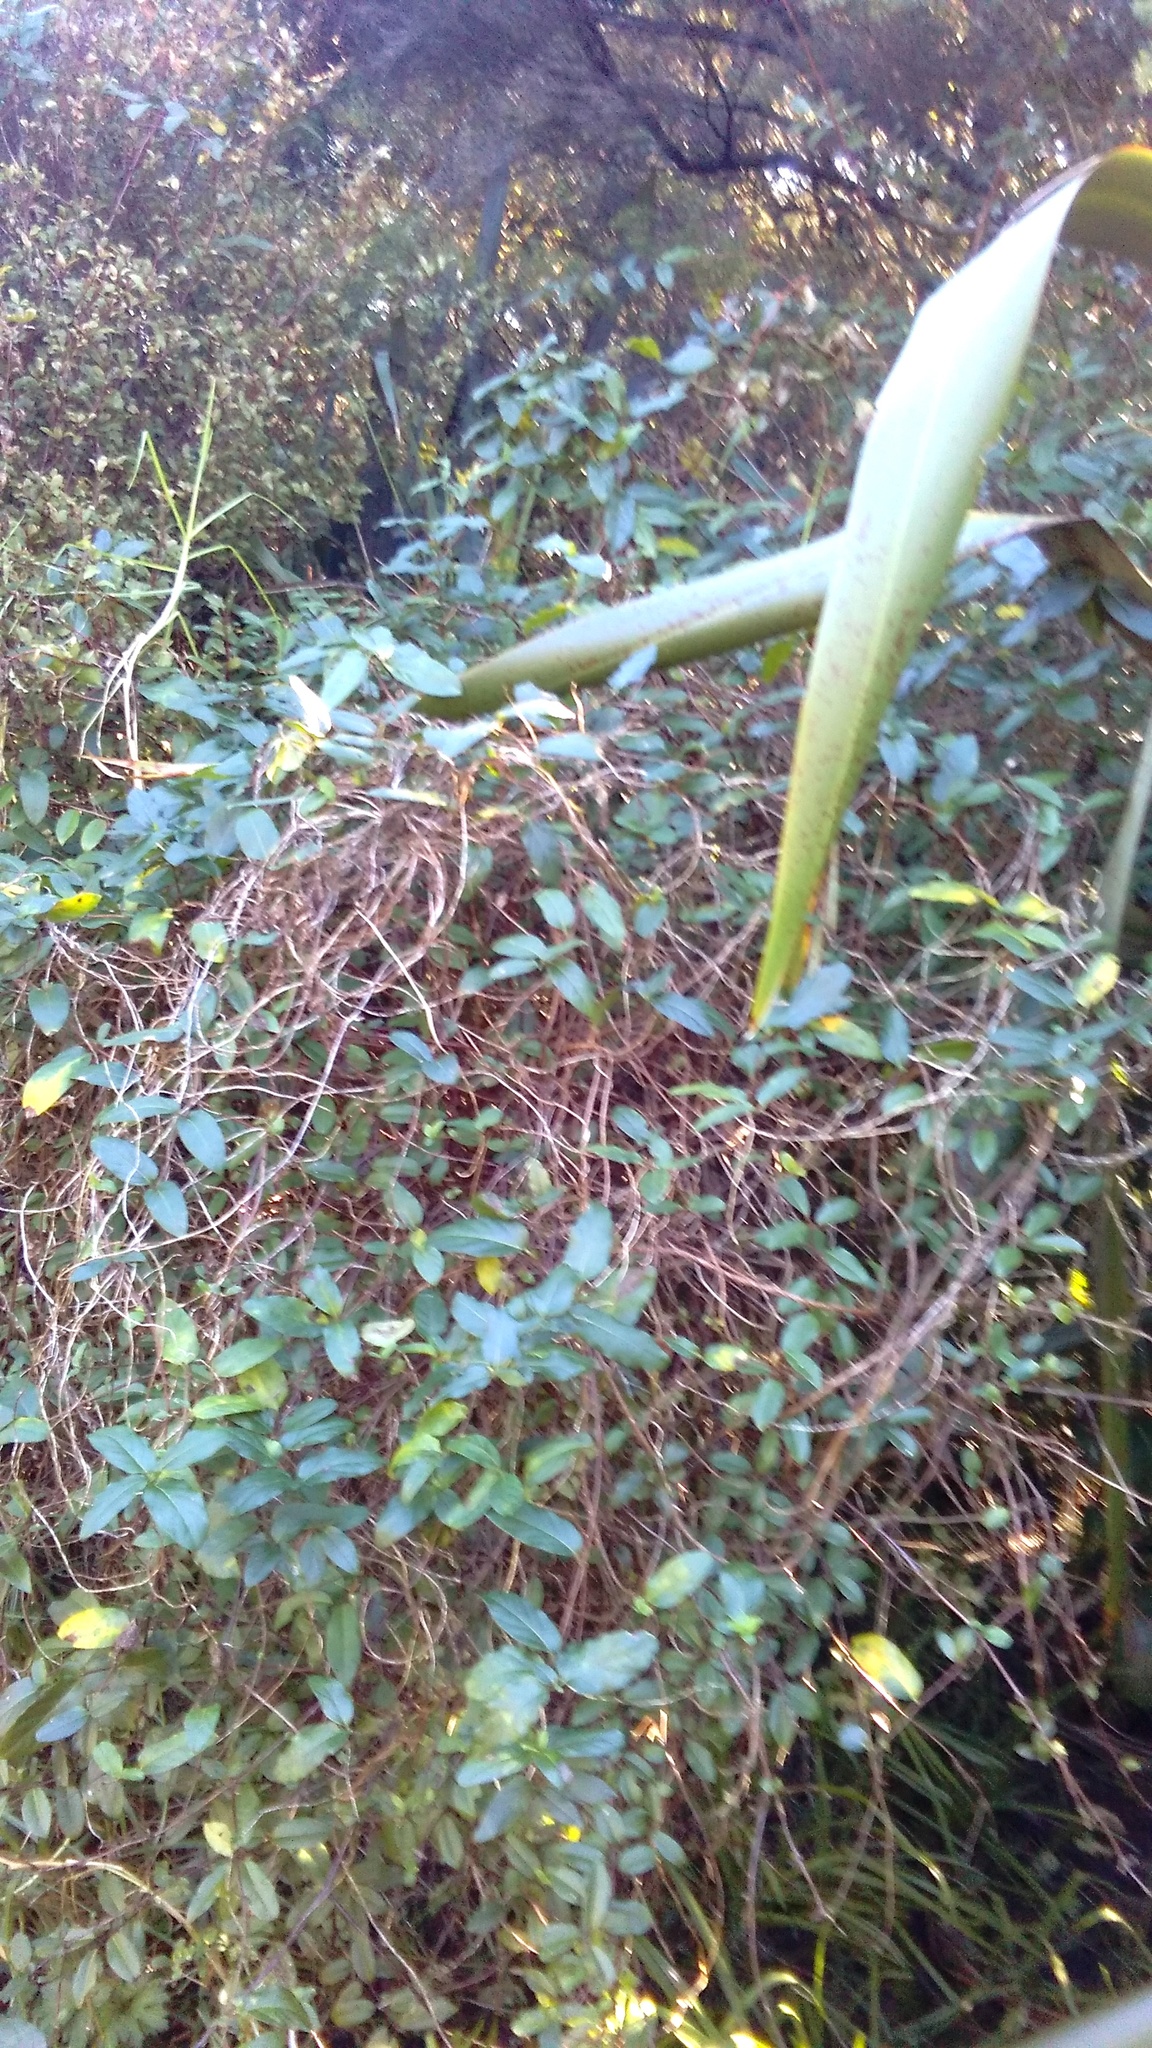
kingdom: Plantae
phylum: Tracheophyta
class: Magnoliopsida
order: Dipsacales
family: Caprifoliaceae
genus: Lonicera
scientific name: Lonicera japonica
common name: Japanese honeysuckle
